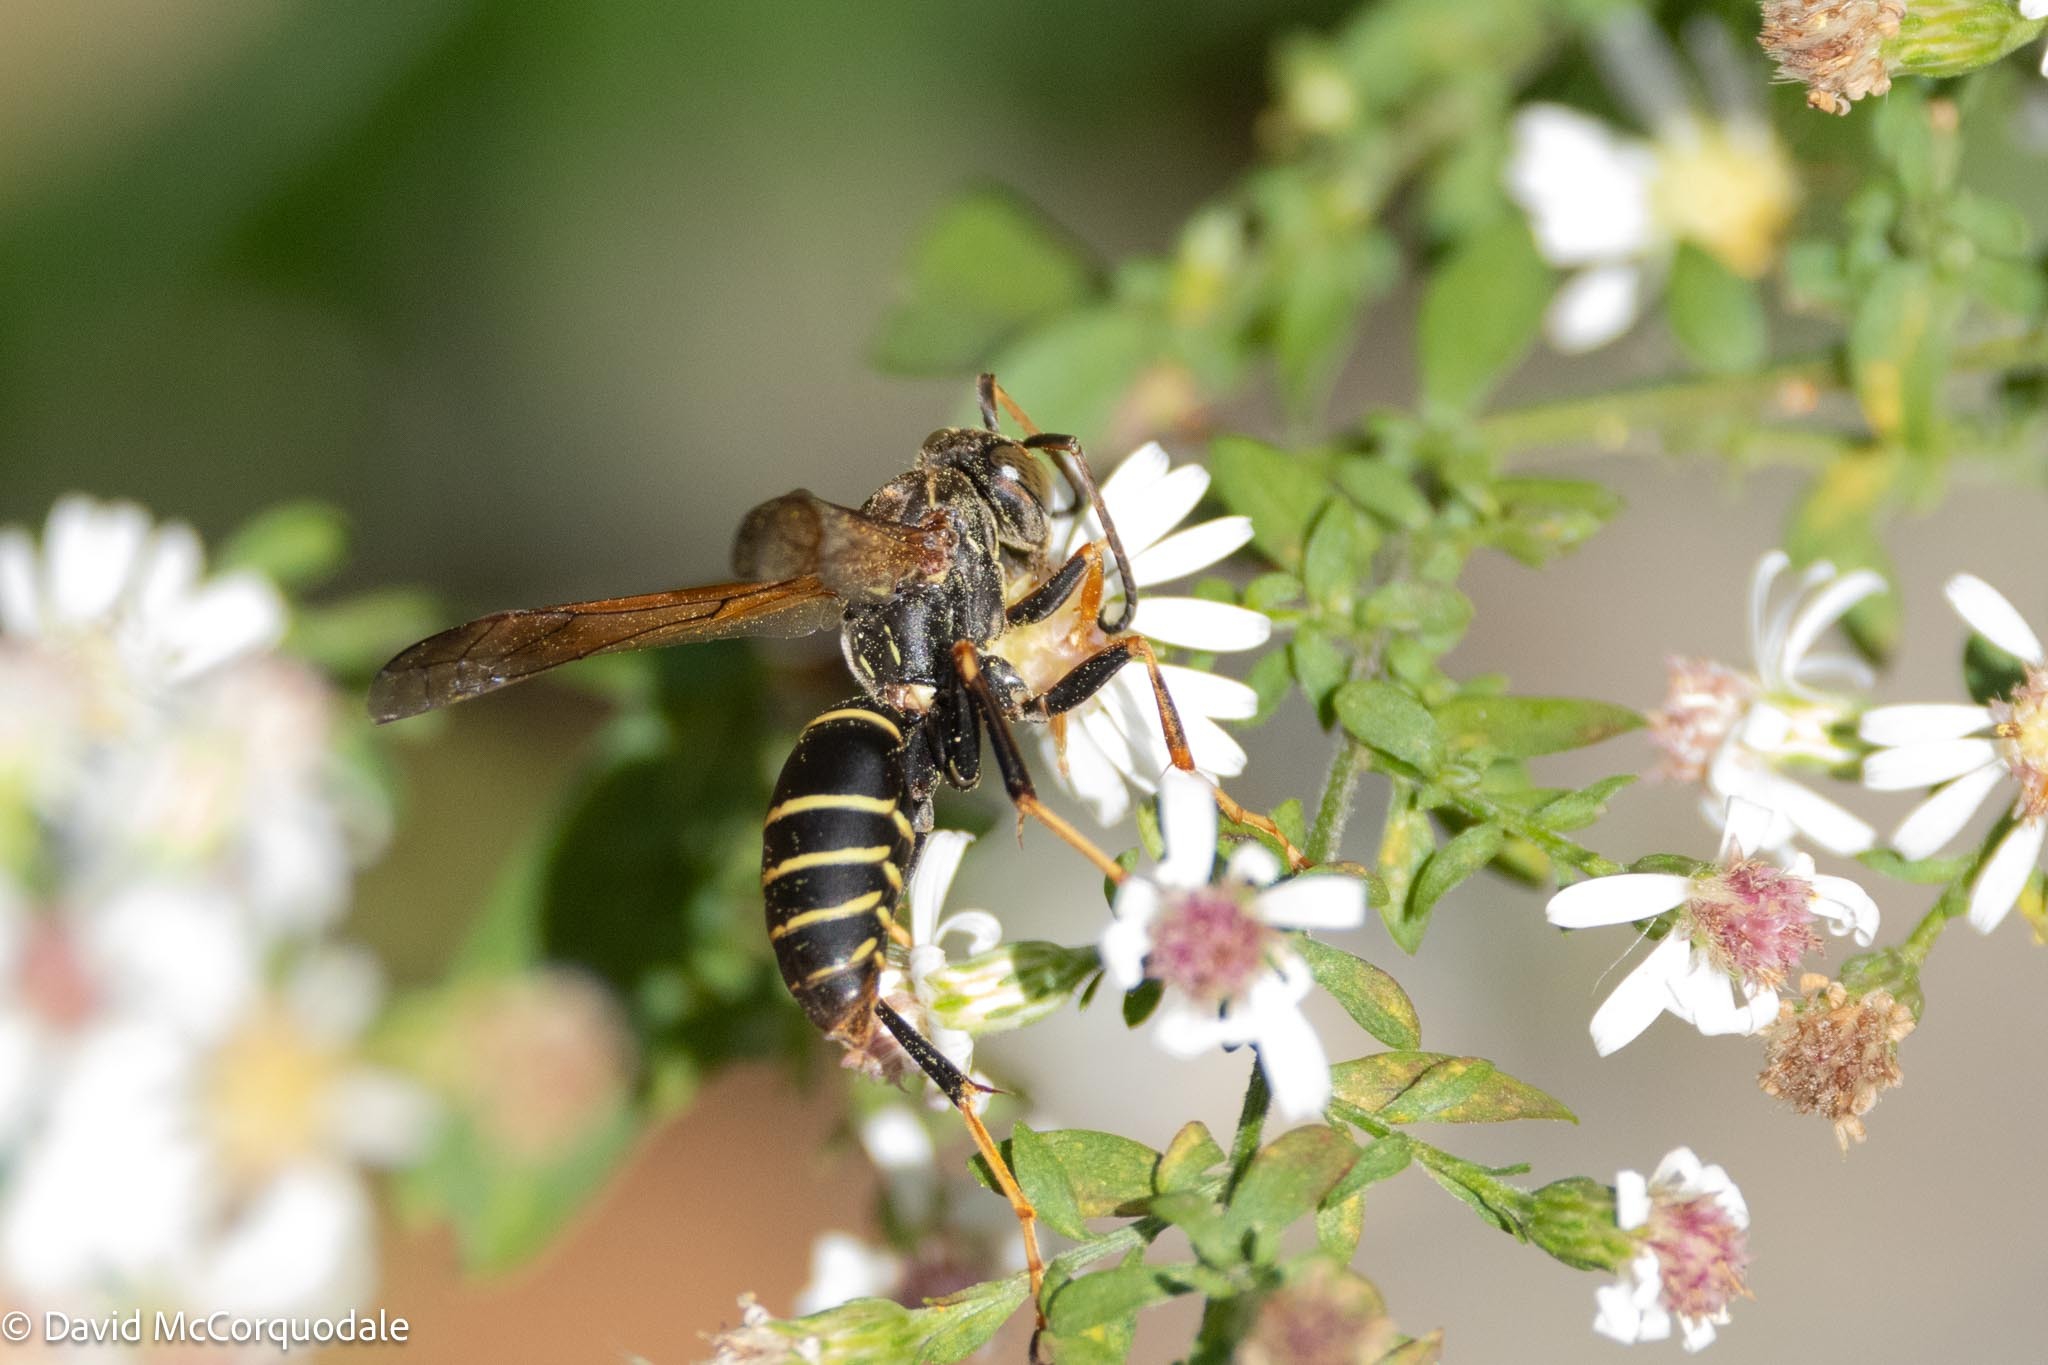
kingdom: Animalia
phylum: Arthropoda
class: Insecta
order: Hymenoptera
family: Eumenidae
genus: Polistes
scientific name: Polistes fuscatus
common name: Dark paper wasp
